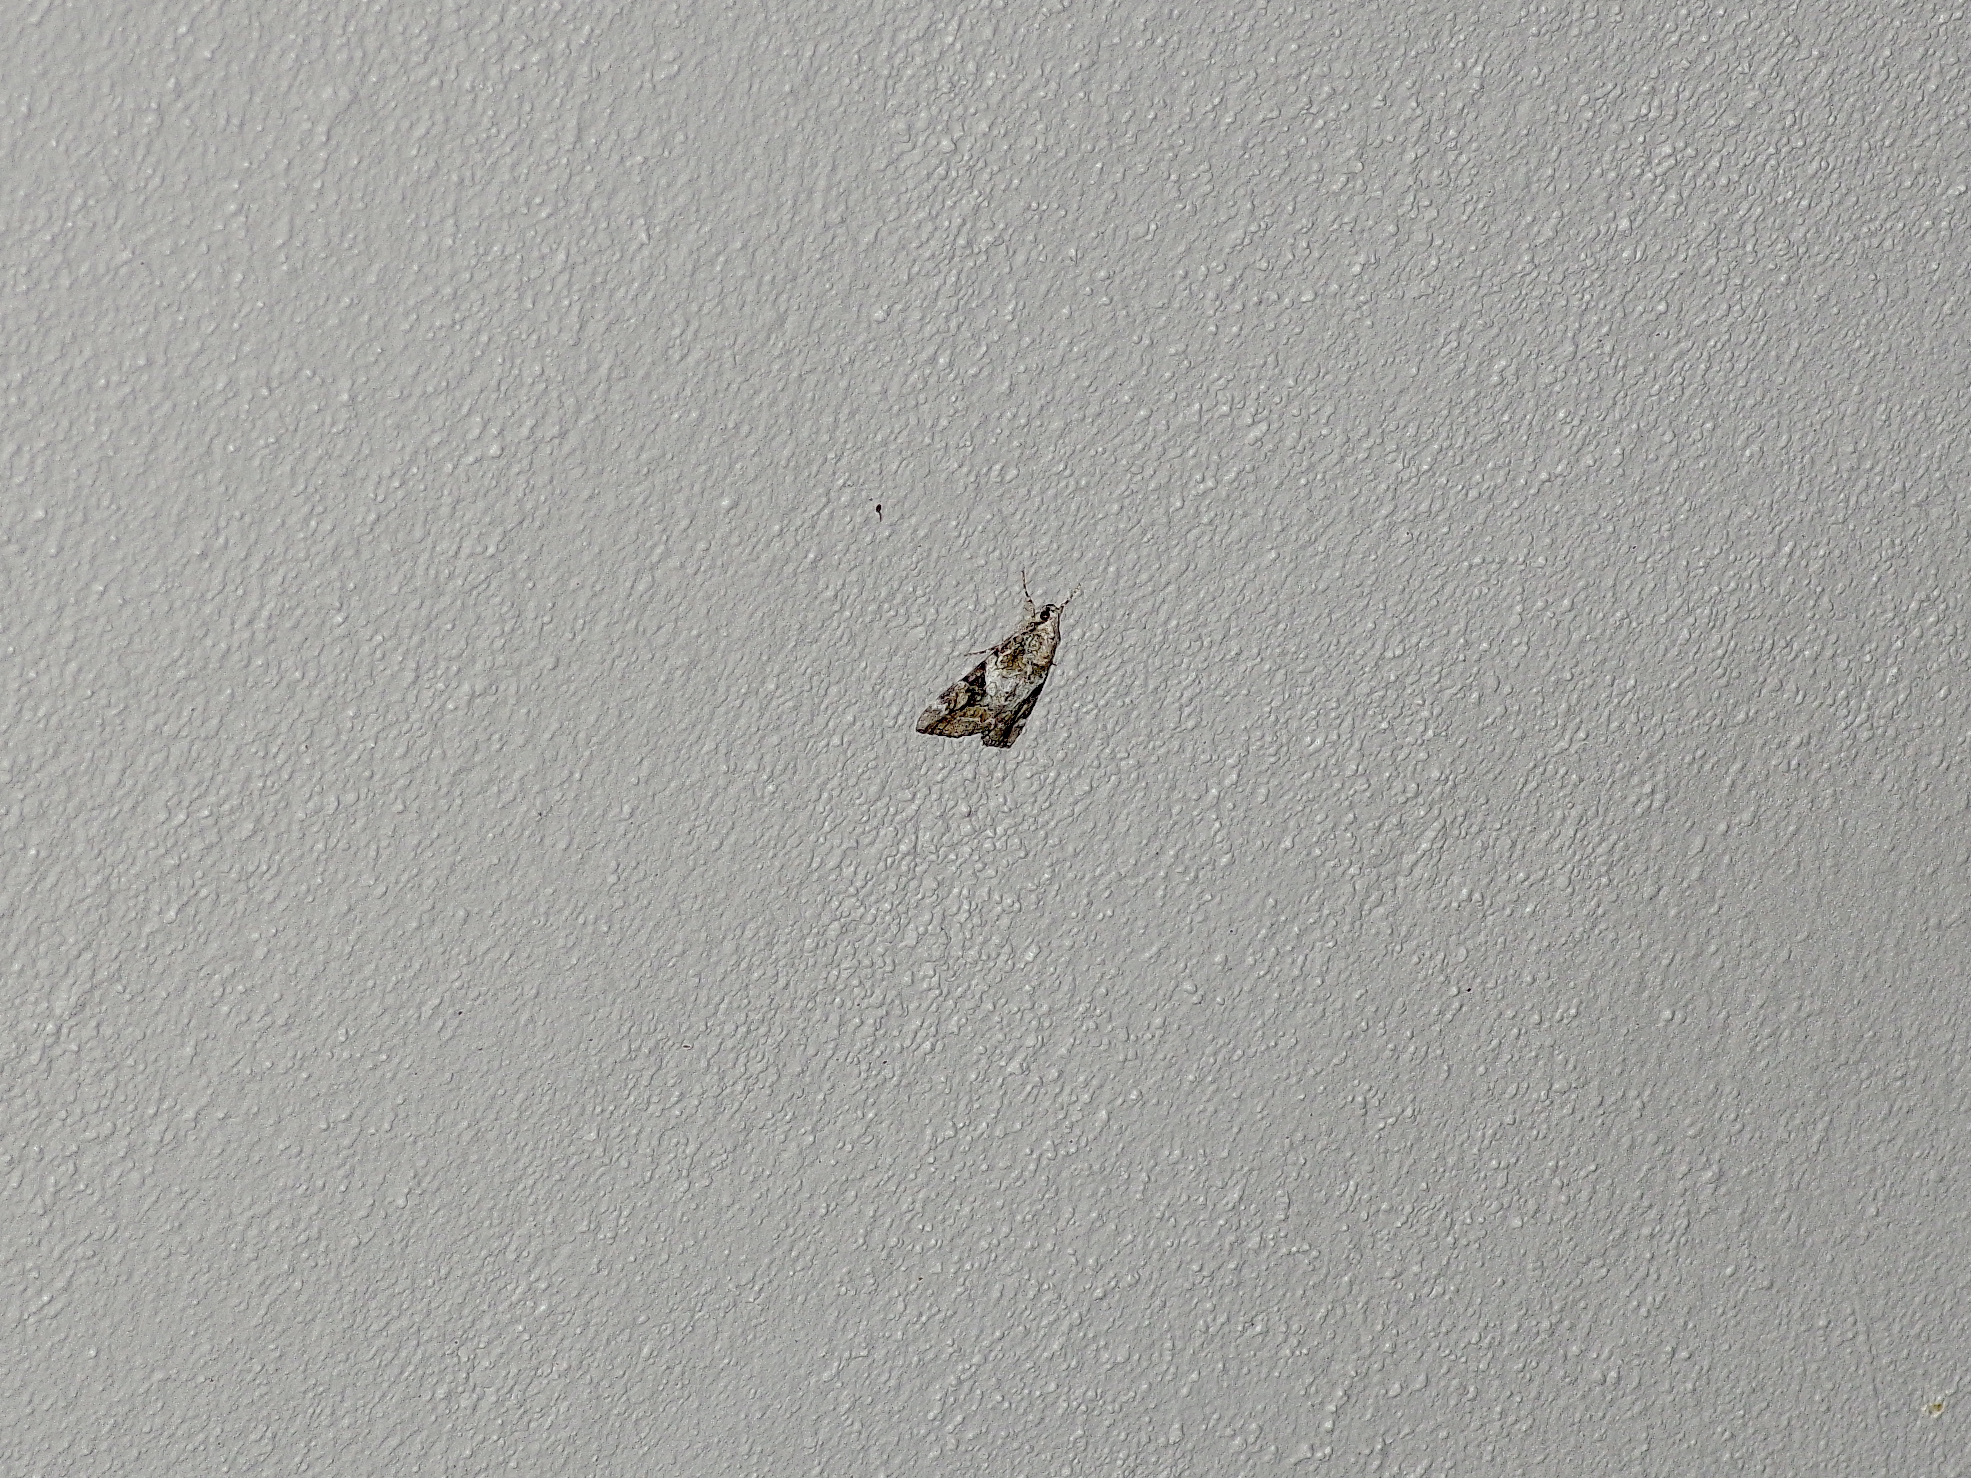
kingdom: Animalia
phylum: Arthropoda
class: Insecta
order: Lepidoptera
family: Erebidae
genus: Catocala
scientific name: Catocala micronympha
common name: Little nymph underwing
